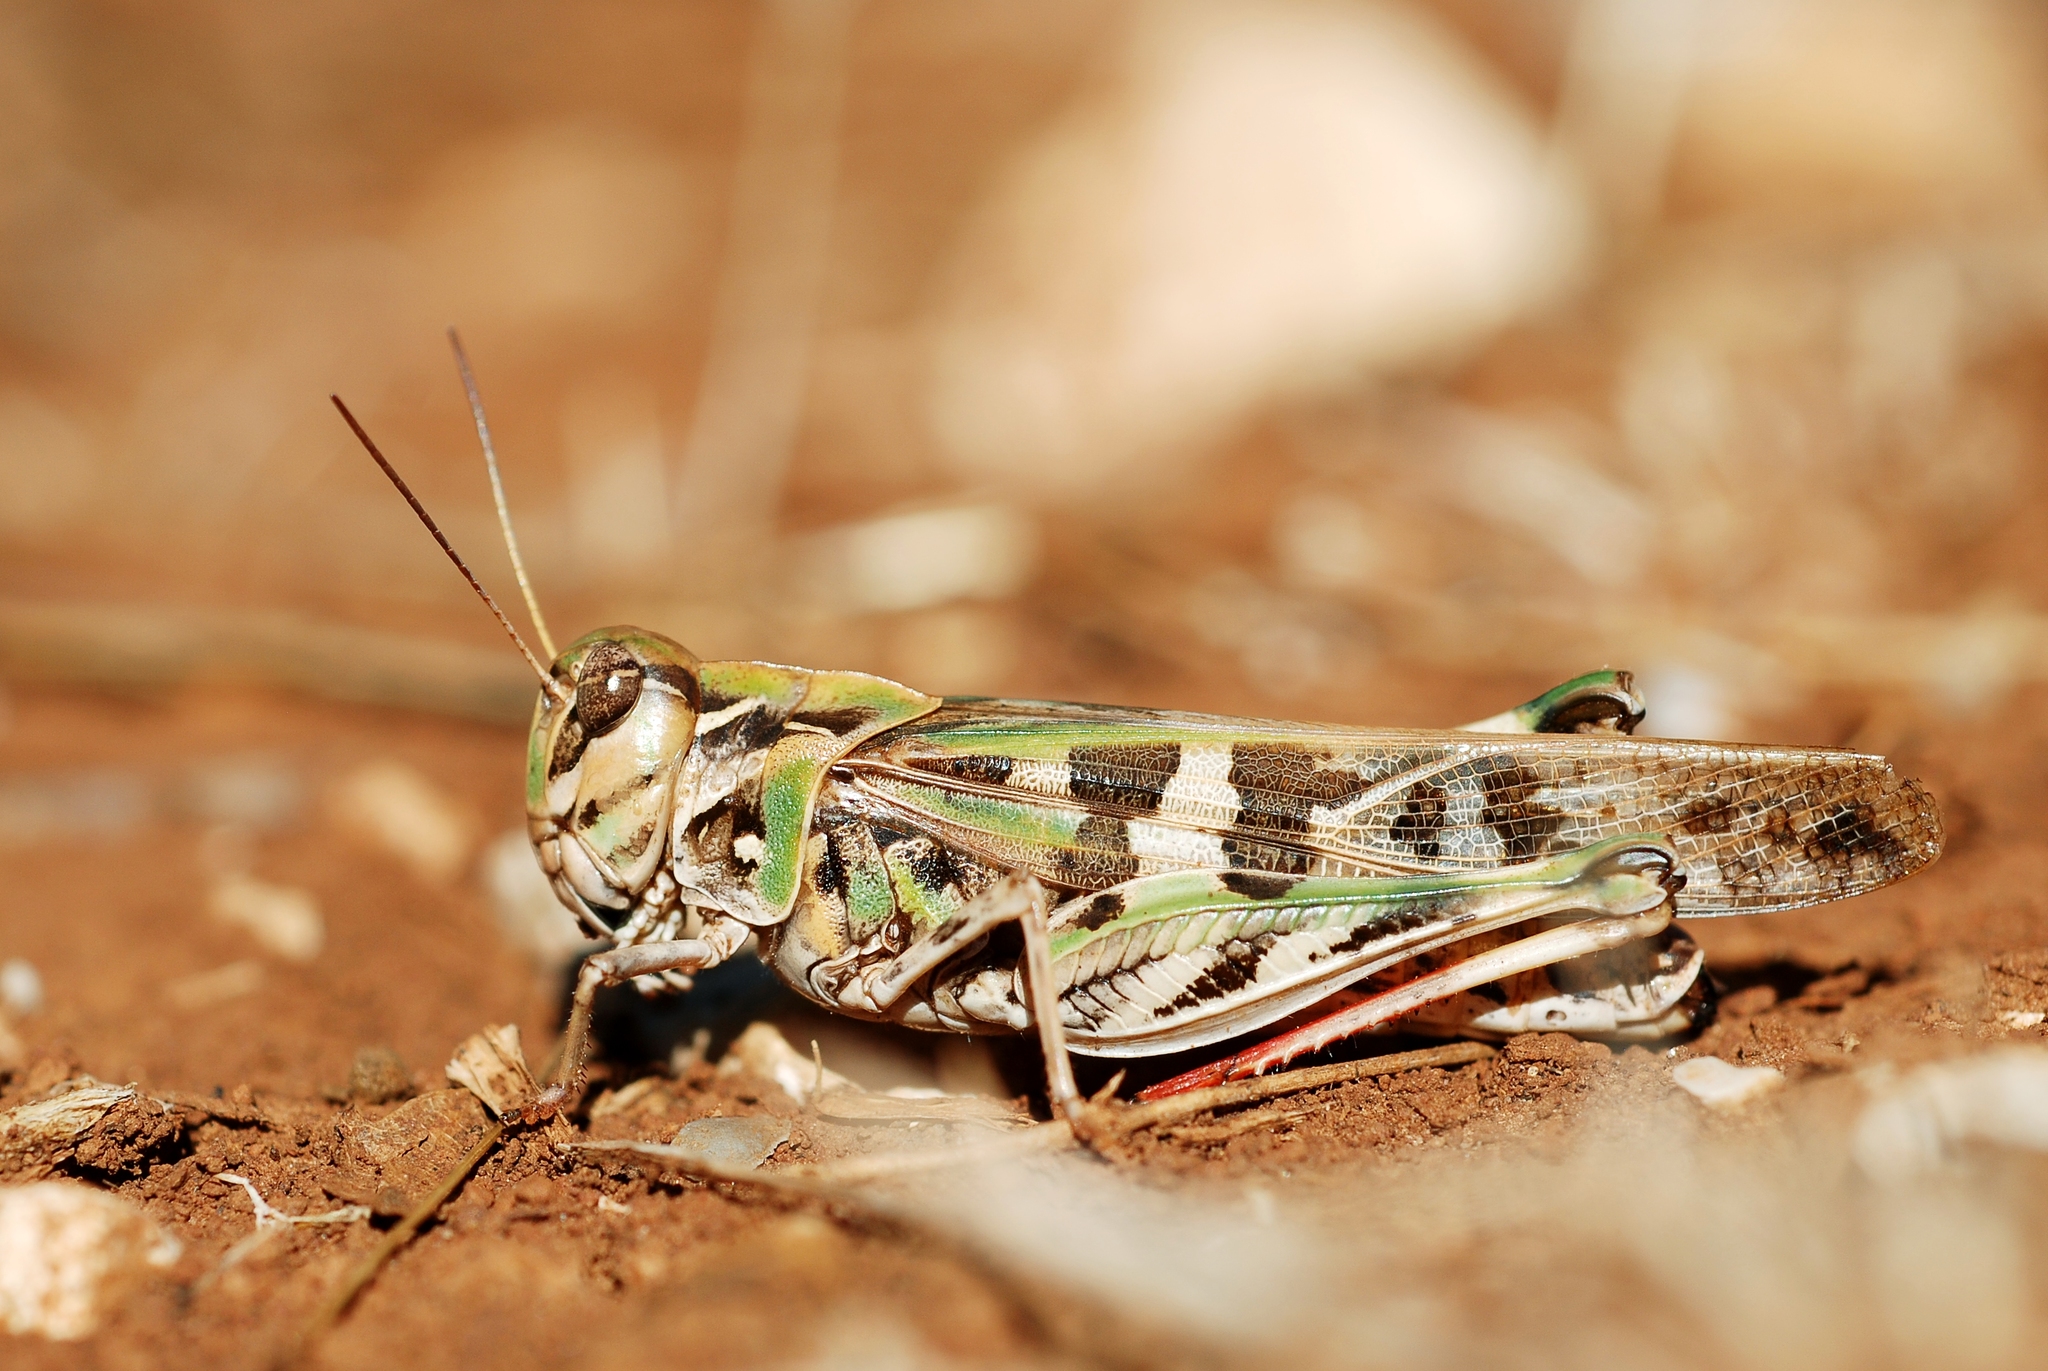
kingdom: Animalia
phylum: Arthropoda
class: Insecta
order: Orthoptera
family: Acrididae
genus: Oedaleus
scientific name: Oedaleus decorus
